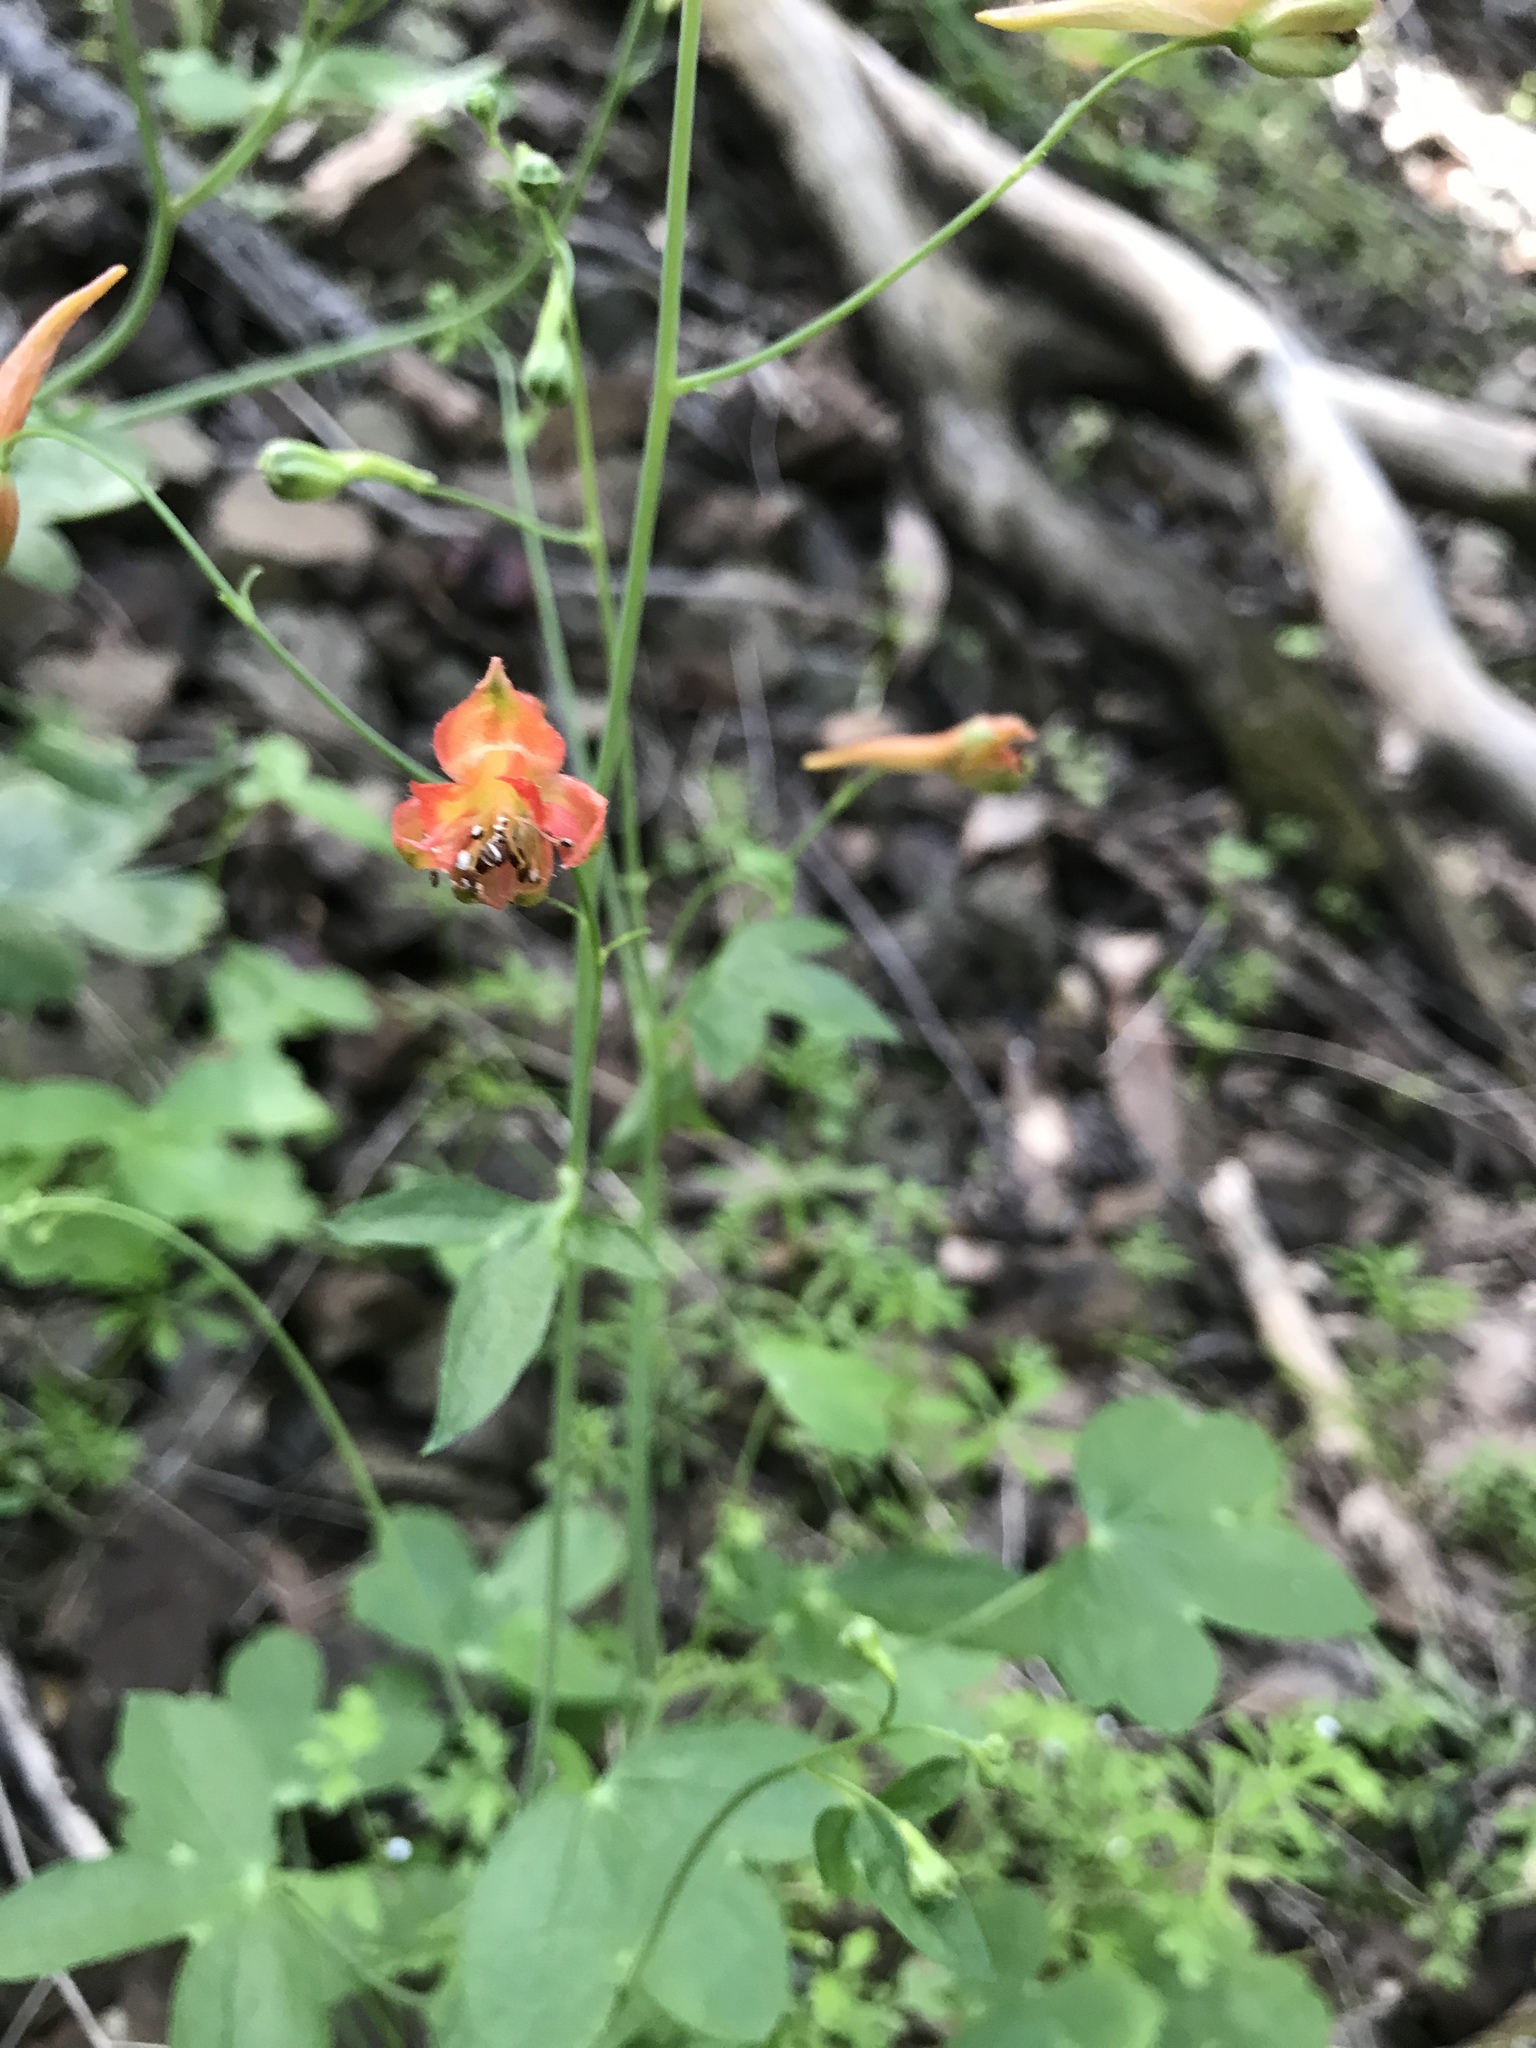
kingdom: Plantae
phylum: Tracheophyta
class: Magnoliopsida
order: Ranunculales
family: Ranunculaceae
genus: Delphinium
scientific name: Delphinium nudicaule
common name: Red larkspur
